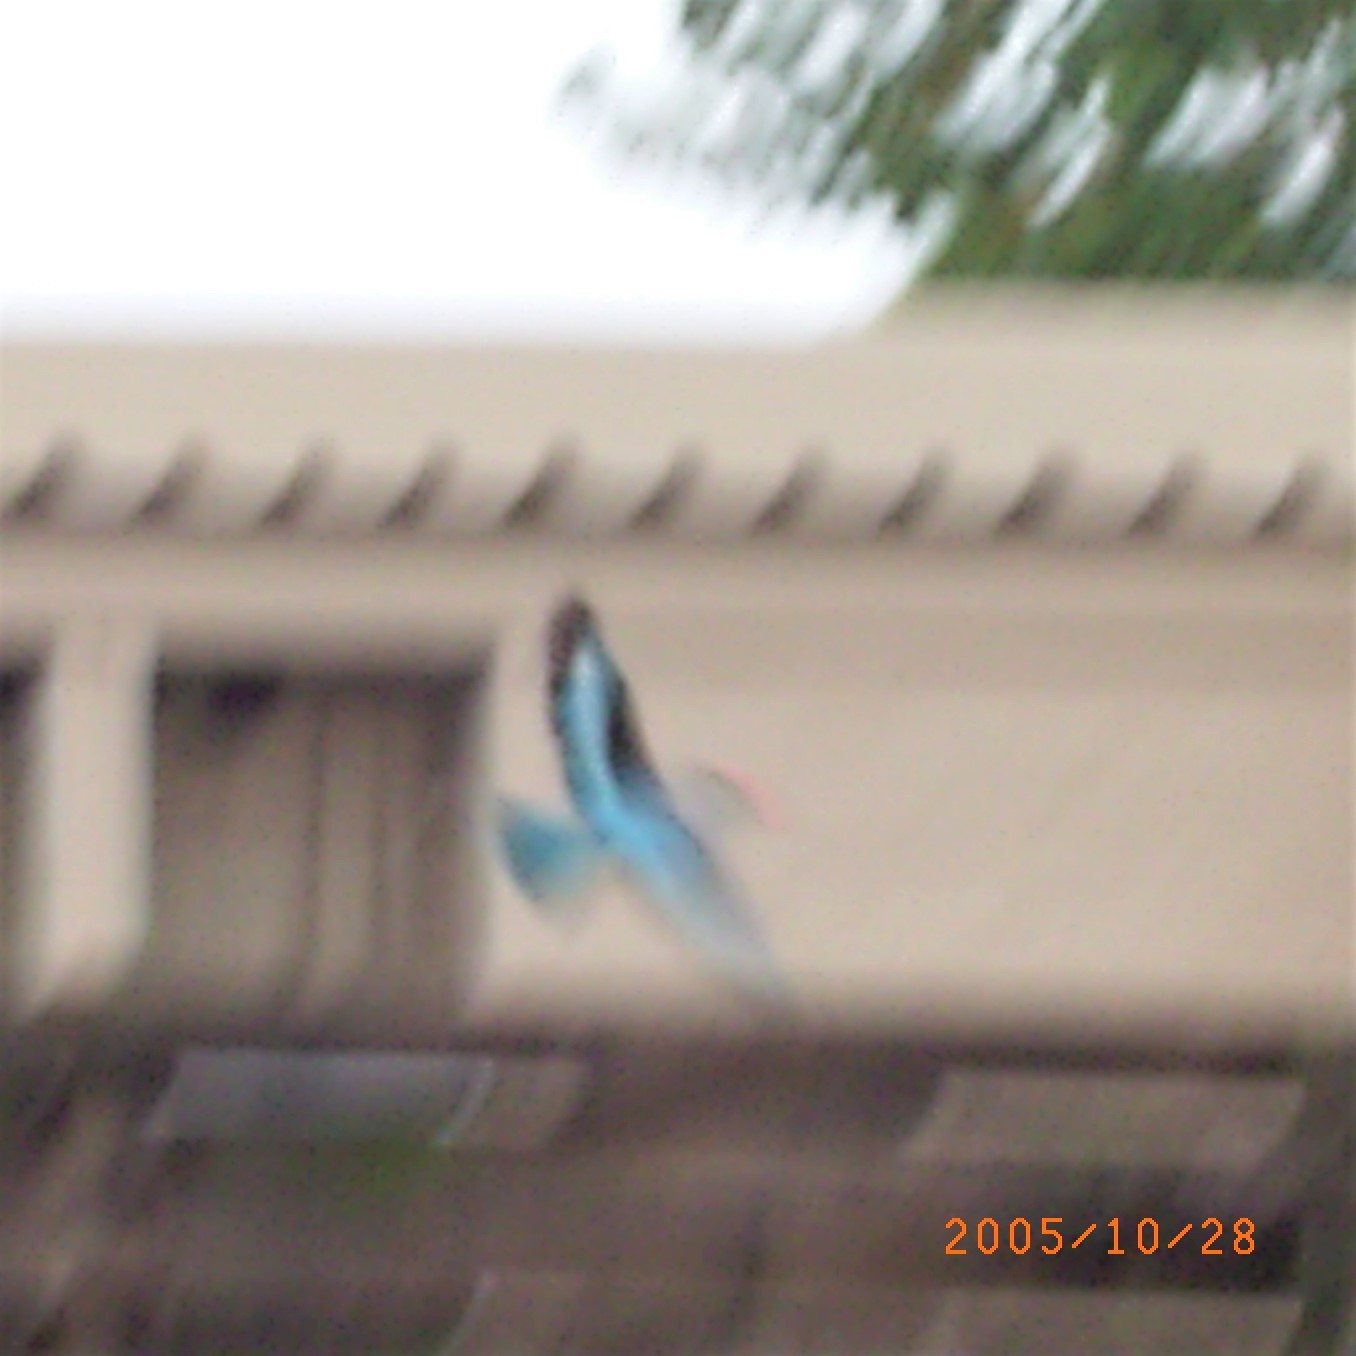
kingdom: Animalia
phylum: Chordata
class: Aves
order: Coraciiformes
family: Alcedinidae
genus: Halcyon
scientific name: Halcyon senegalensis
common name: Woodland kingfisher
